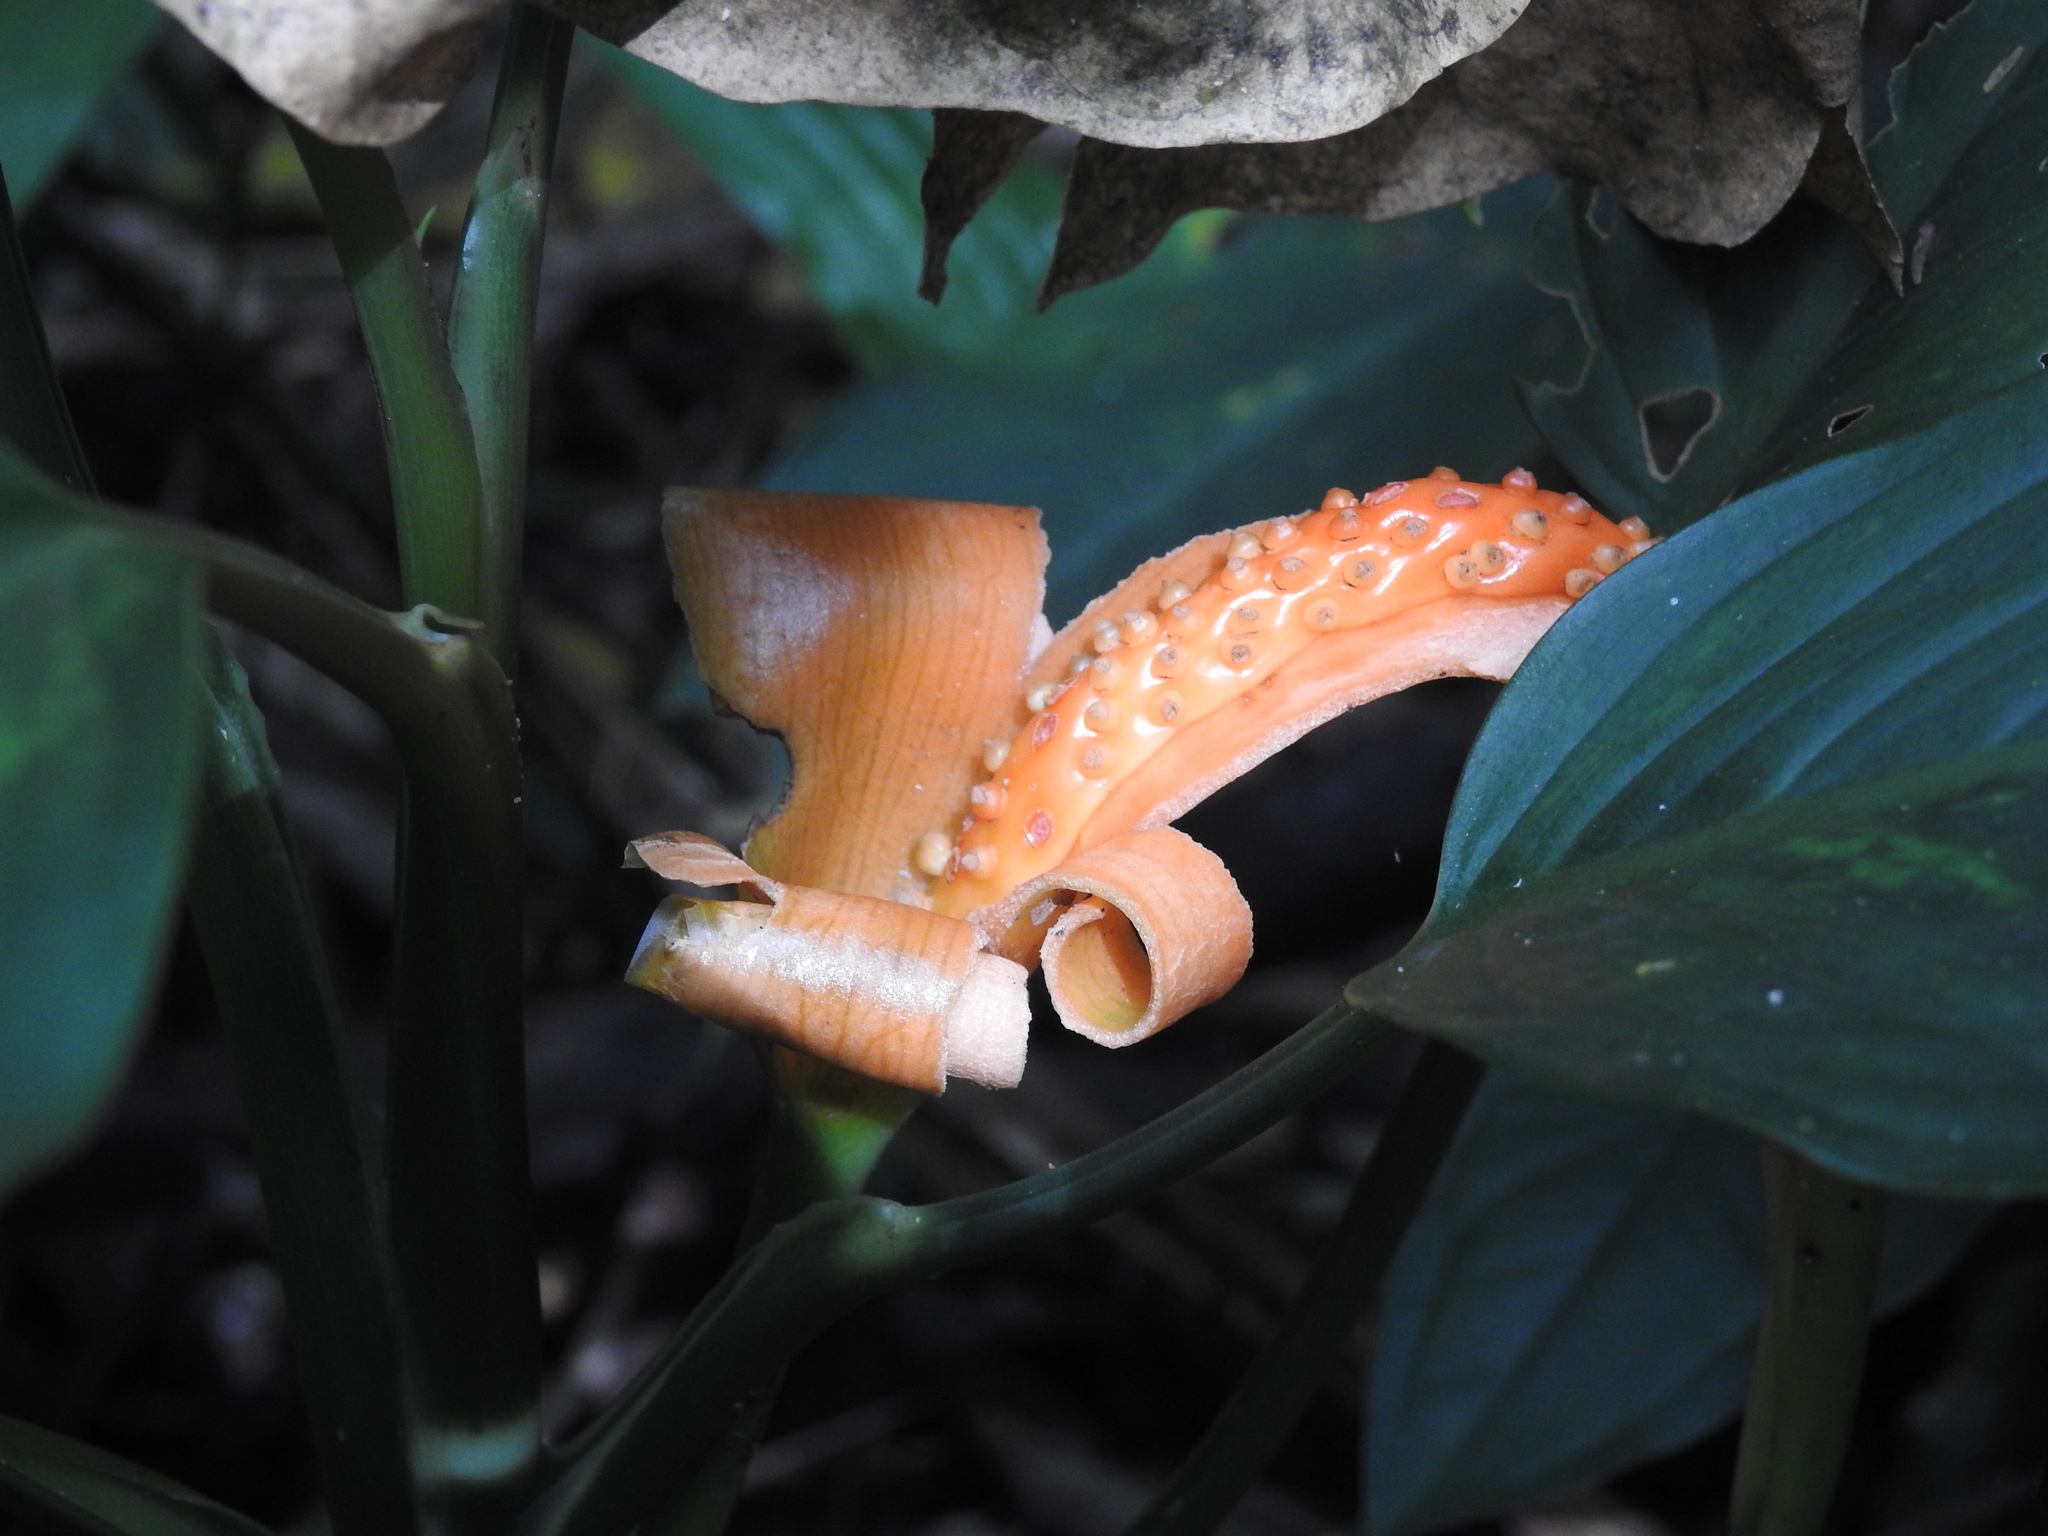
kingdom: Plantae
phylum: Tracheophyta
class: Liliopsida
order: Alismatales
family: Araceae
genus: Dieffenbachia
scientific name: Dieffenbachia oerstedii
